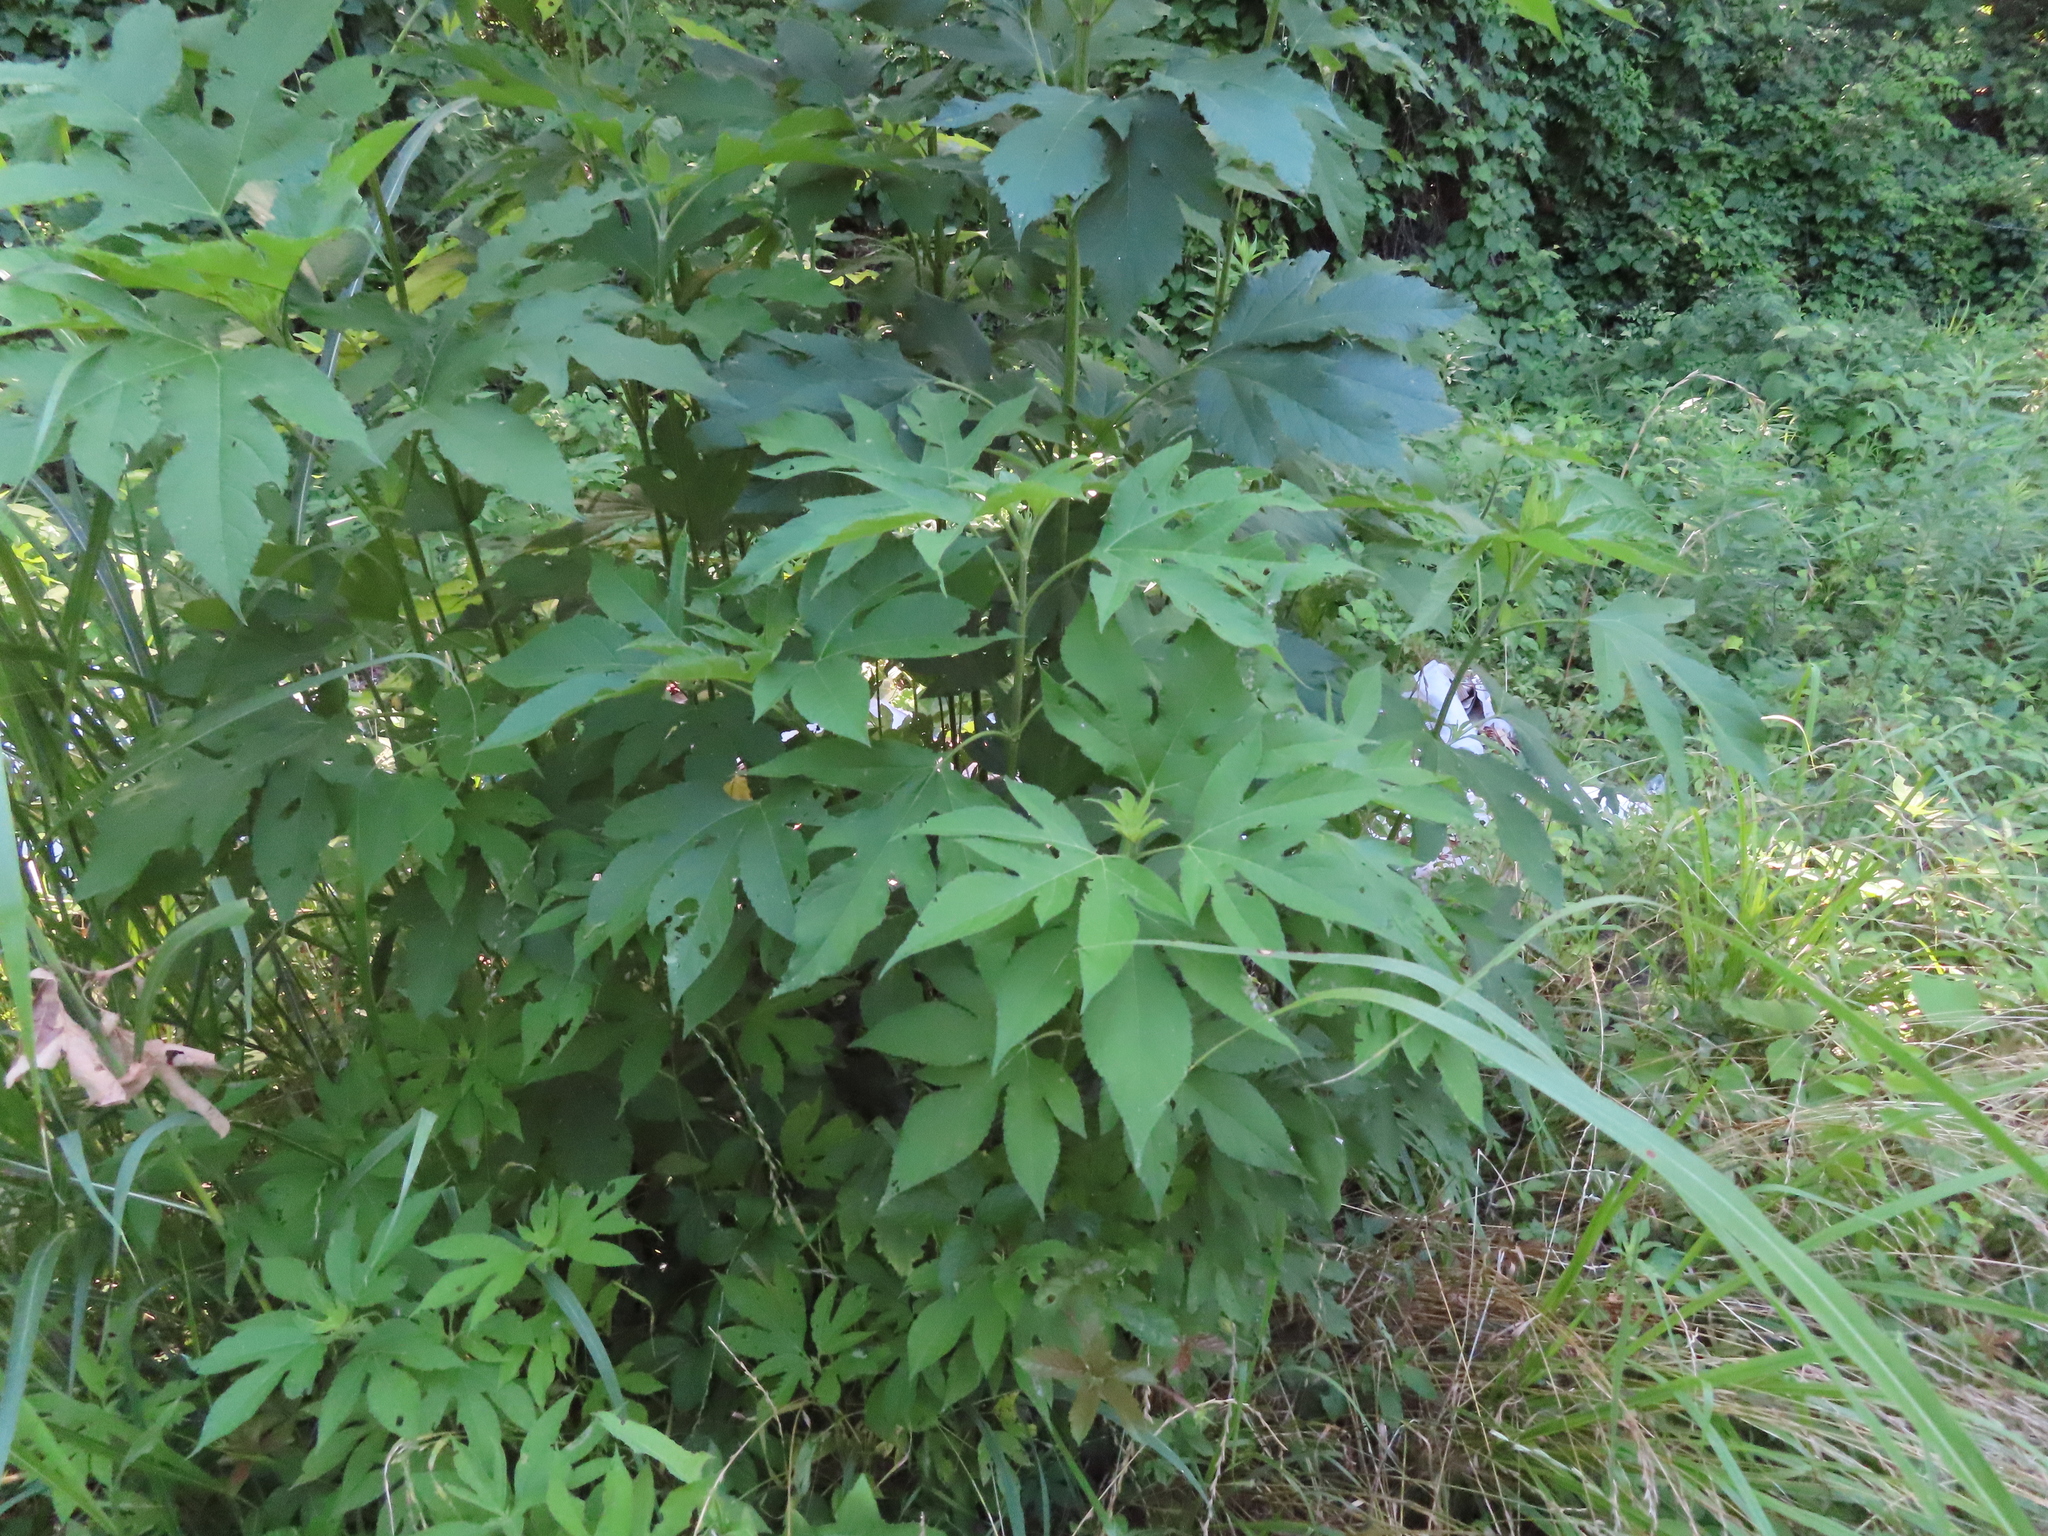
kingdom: Plantae
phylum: Tracheophyta
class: Magnoliopsida
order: Asterales
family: Asteraceae
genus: Ambrosia
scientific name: Ambrosia trifida
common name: Giant ragweed
